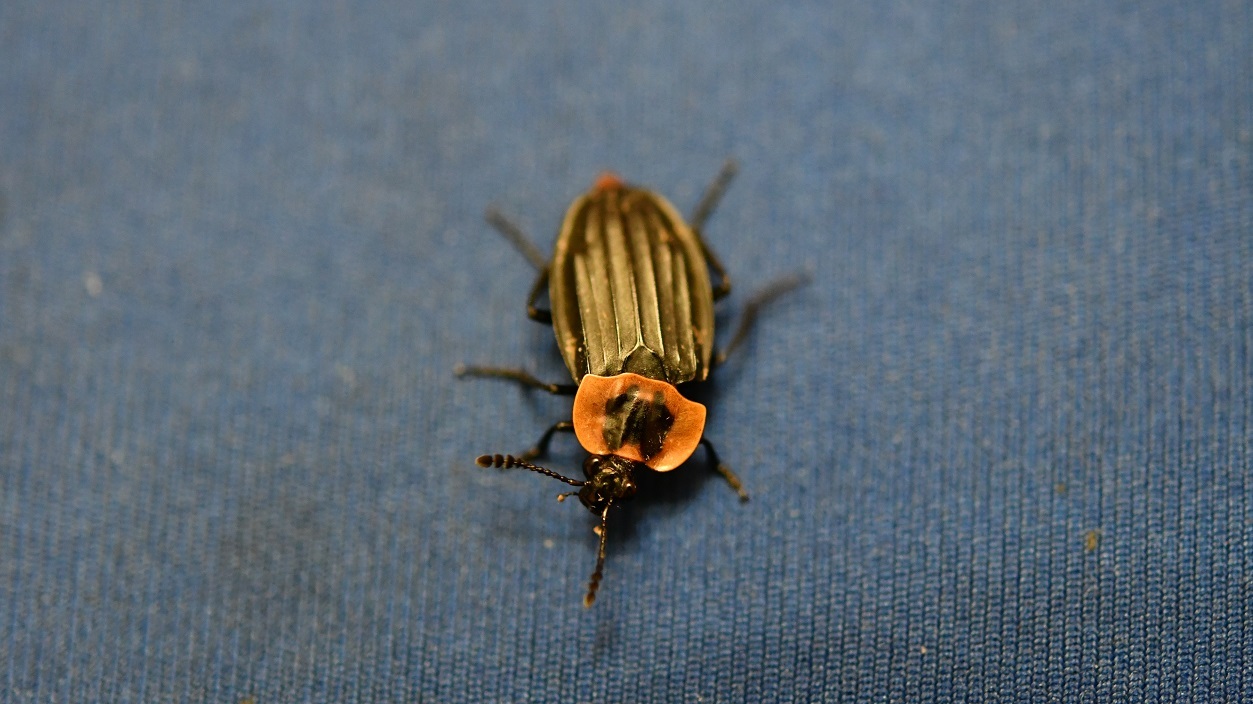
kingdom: Animalia
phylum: Arthropoda
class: Insecta
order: Coleoptera
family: Staphylinidae
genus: Oxelytrum
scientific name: Oxelytrum discicolle
